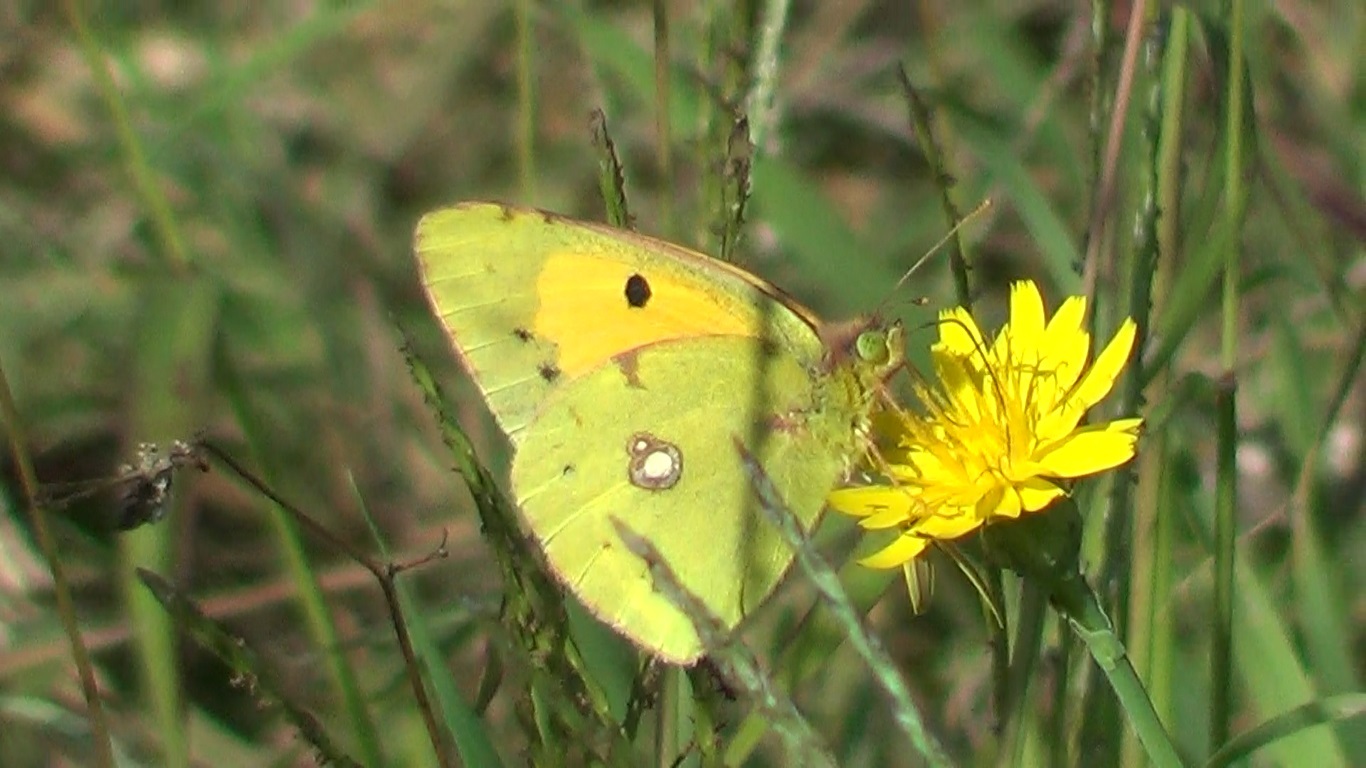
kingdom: Animalia
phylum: Arthropoda
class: Insecta
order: Lepidoptera
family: Pieridae
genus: Colias
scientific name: Colias croceus
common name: Clouded yellow
